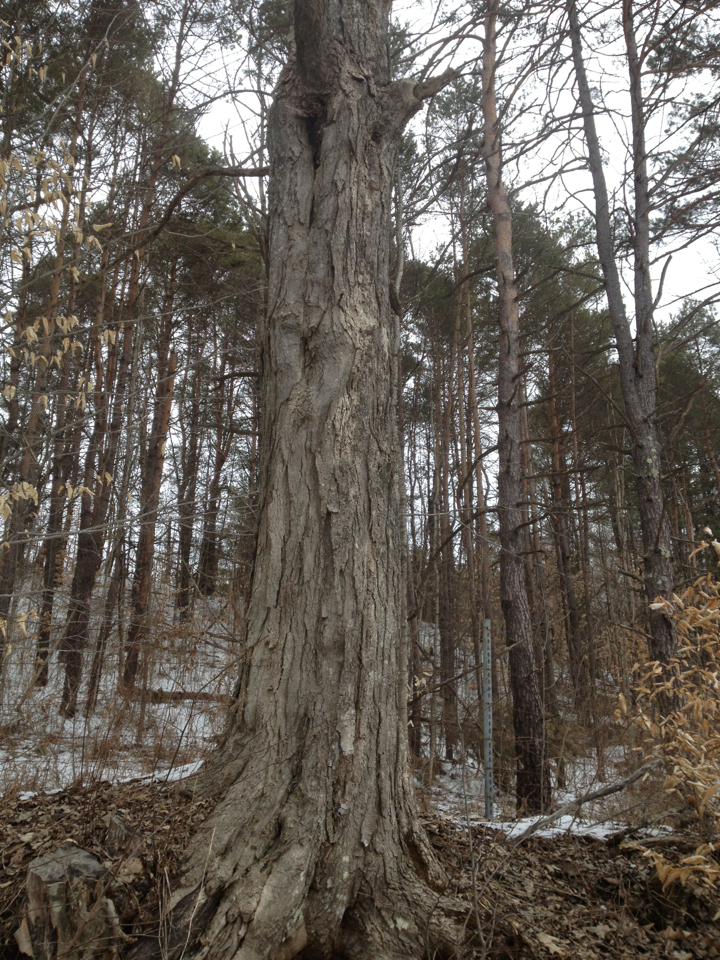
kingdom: Plantae
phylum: Tracheophyta
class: Magnoliopsida
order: Sapindales
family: Sapindaceae
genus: Acer
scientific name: Acer saccharum
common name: Sugar maple
